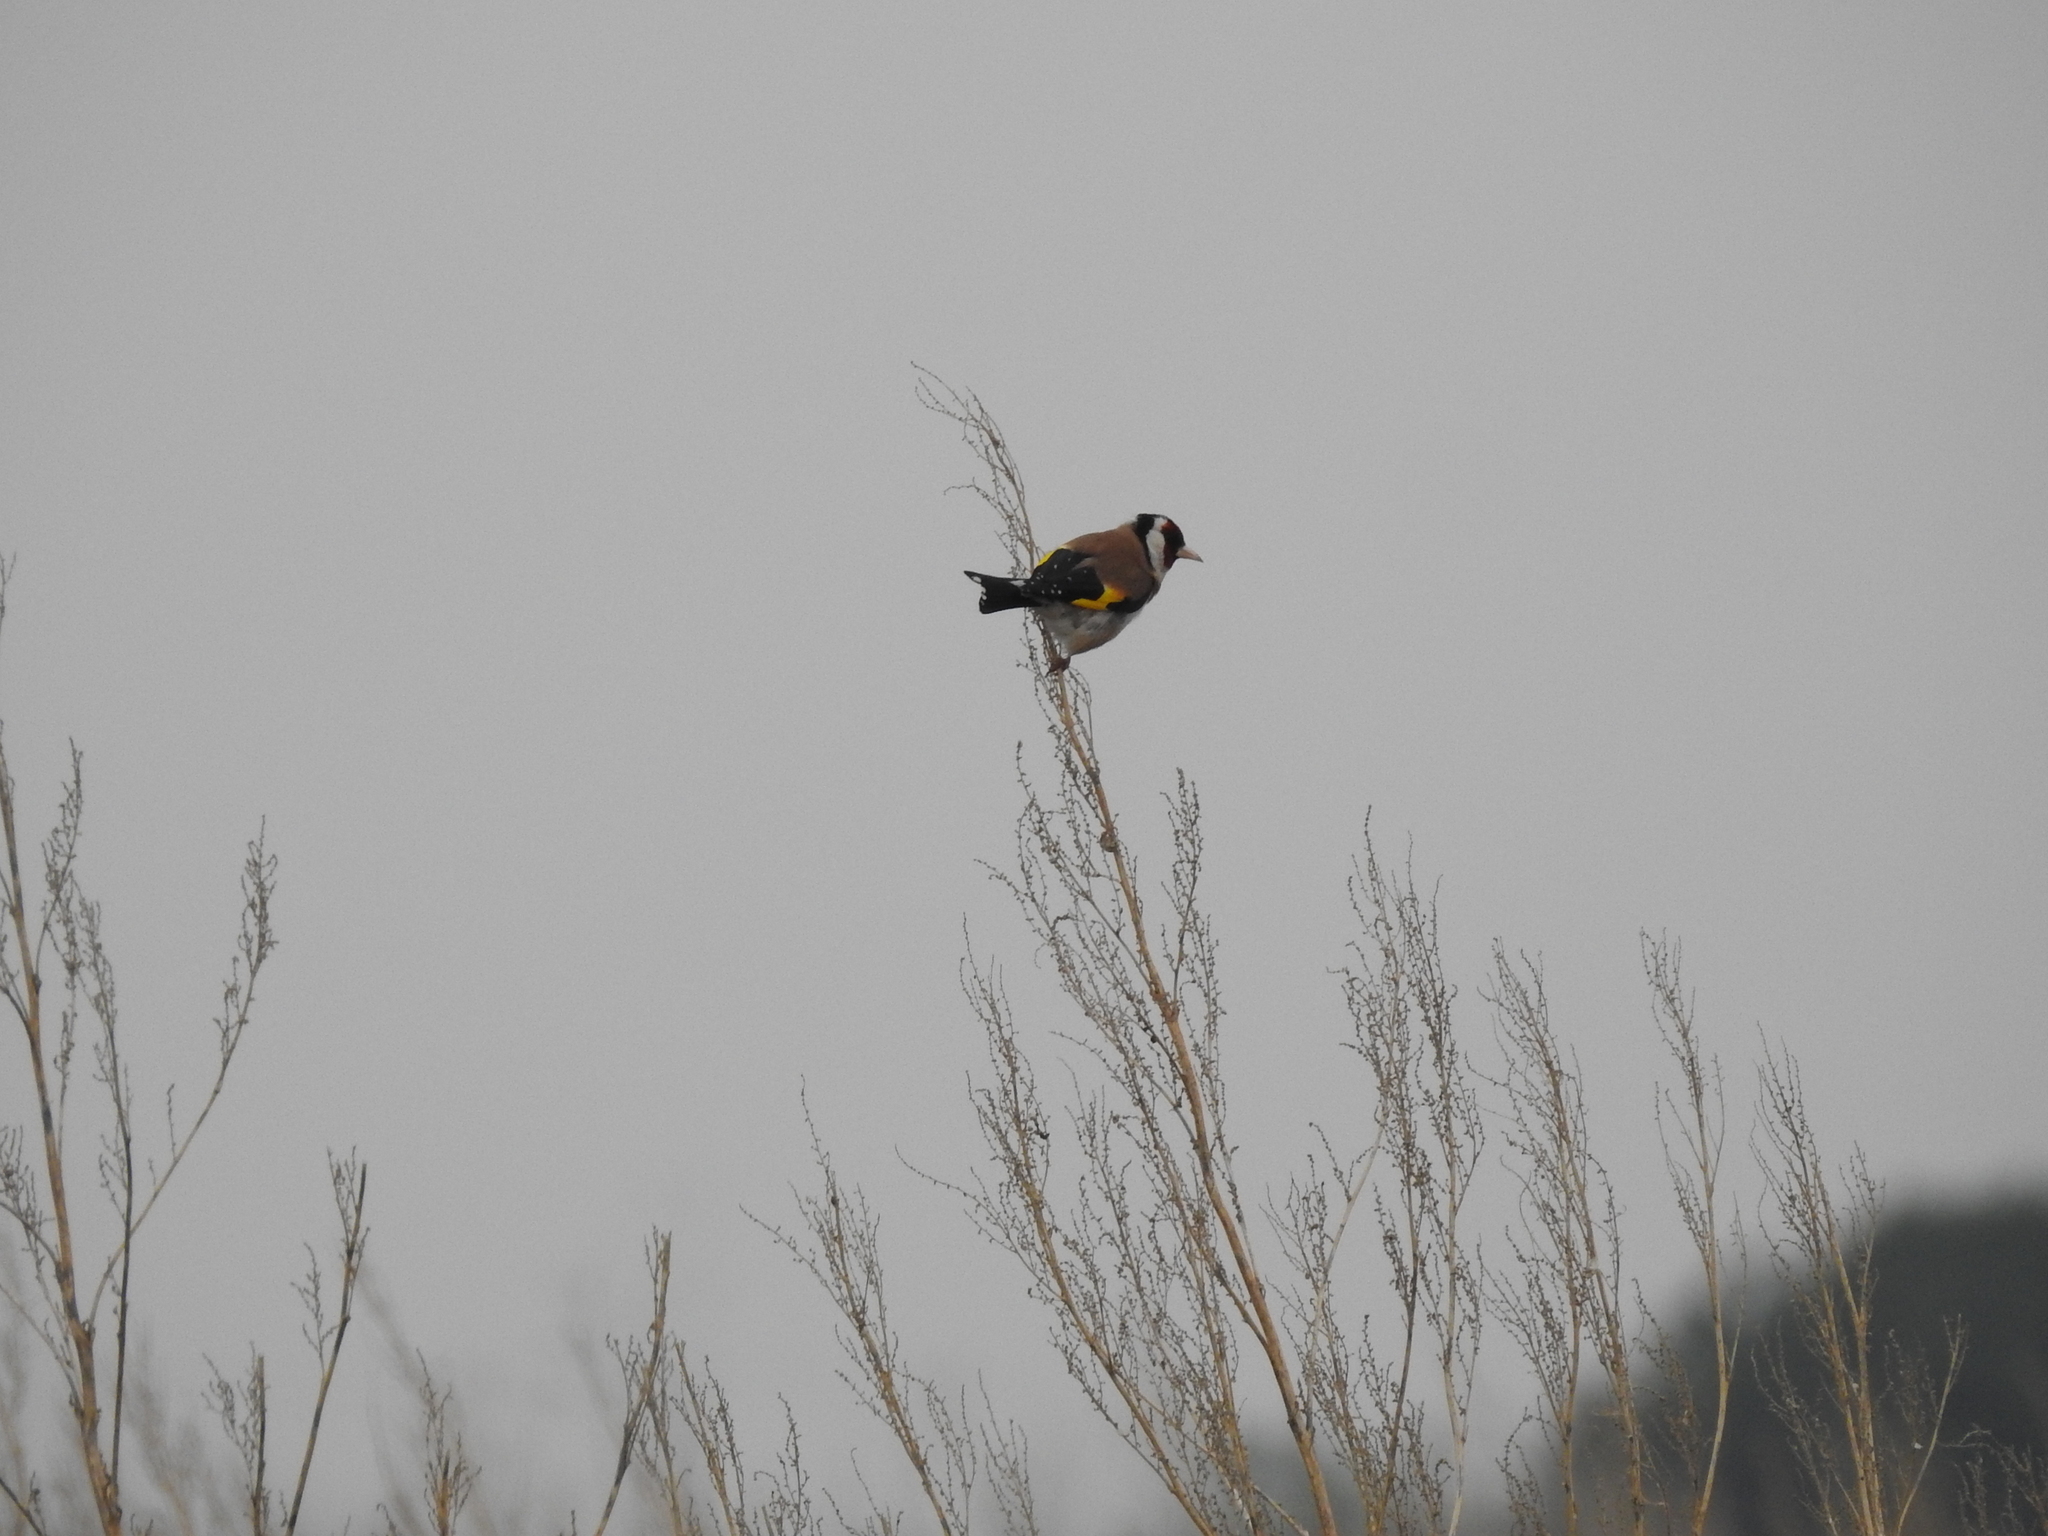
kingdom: Animalia
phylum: Chordata
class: Aves
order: Passeriformes
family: Fringillidae
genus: Carduelis
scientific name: Carduelis carduelis
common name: European goldfinch
